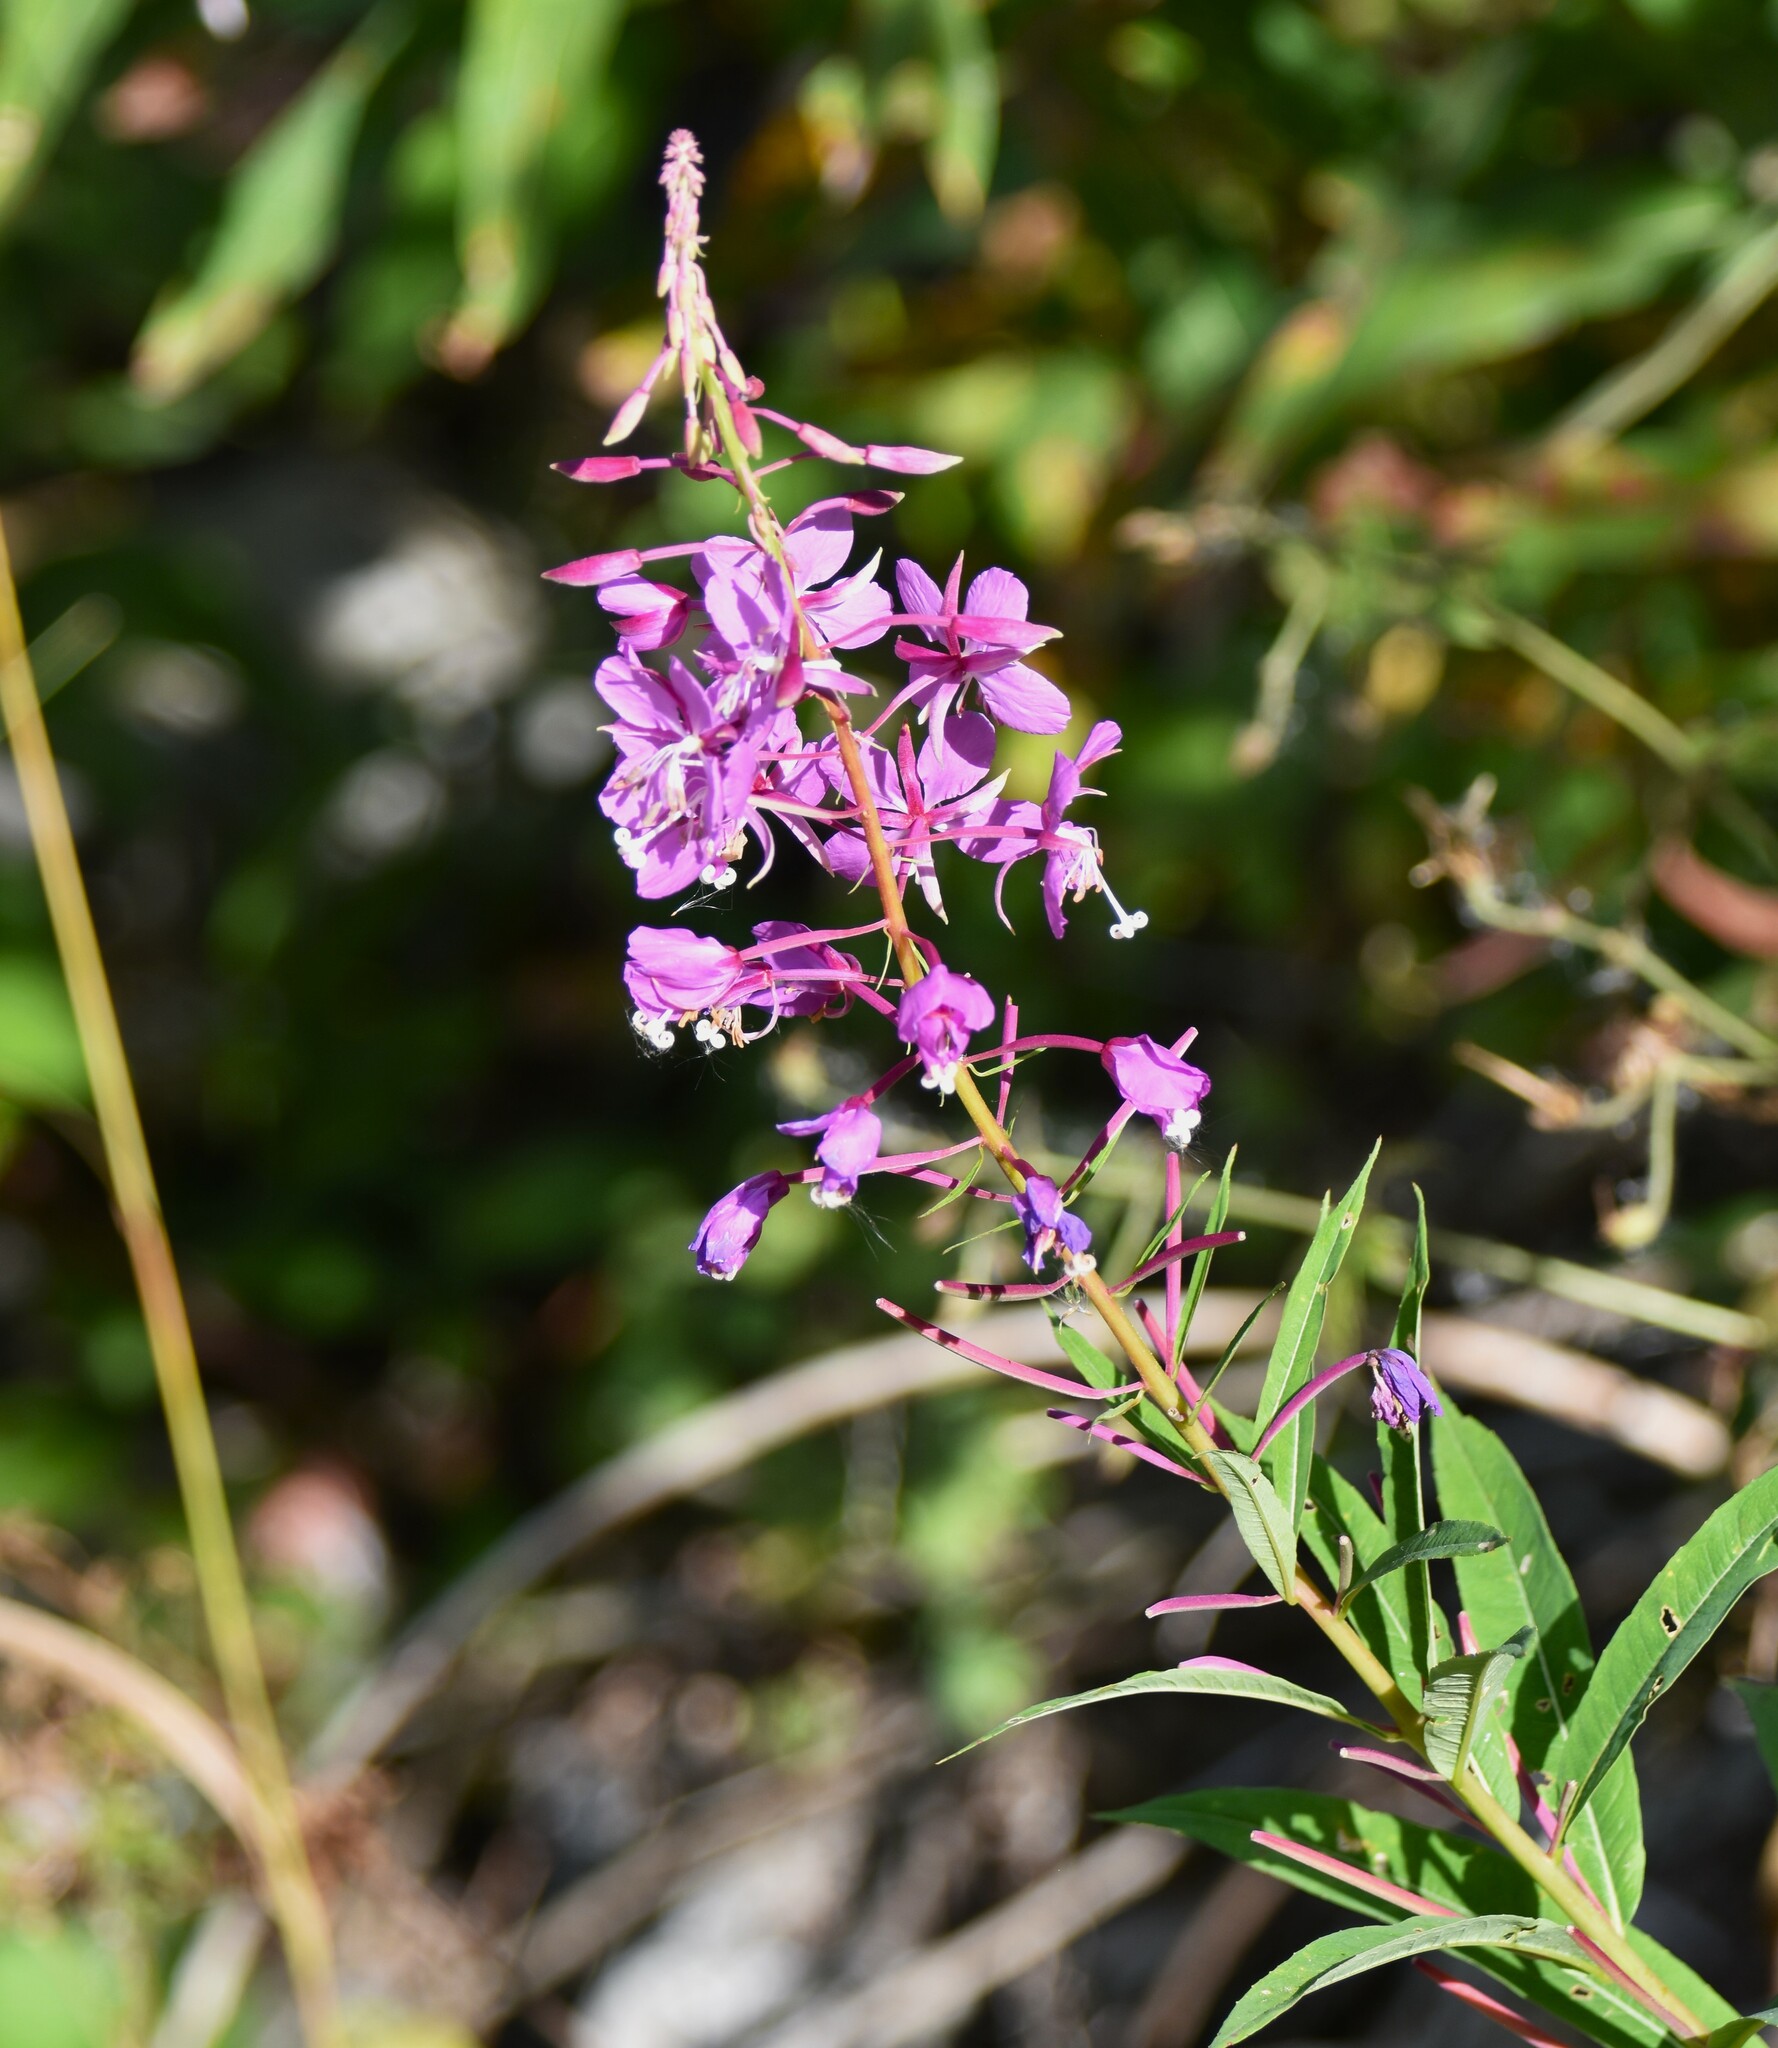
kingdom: Plantae
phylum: Tracheophyta
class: Magnoliopsida
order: Myrtales
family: Onagraceae
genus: Chamaenerion
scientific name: Chamaenerion angustifolium
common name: Fireweed
